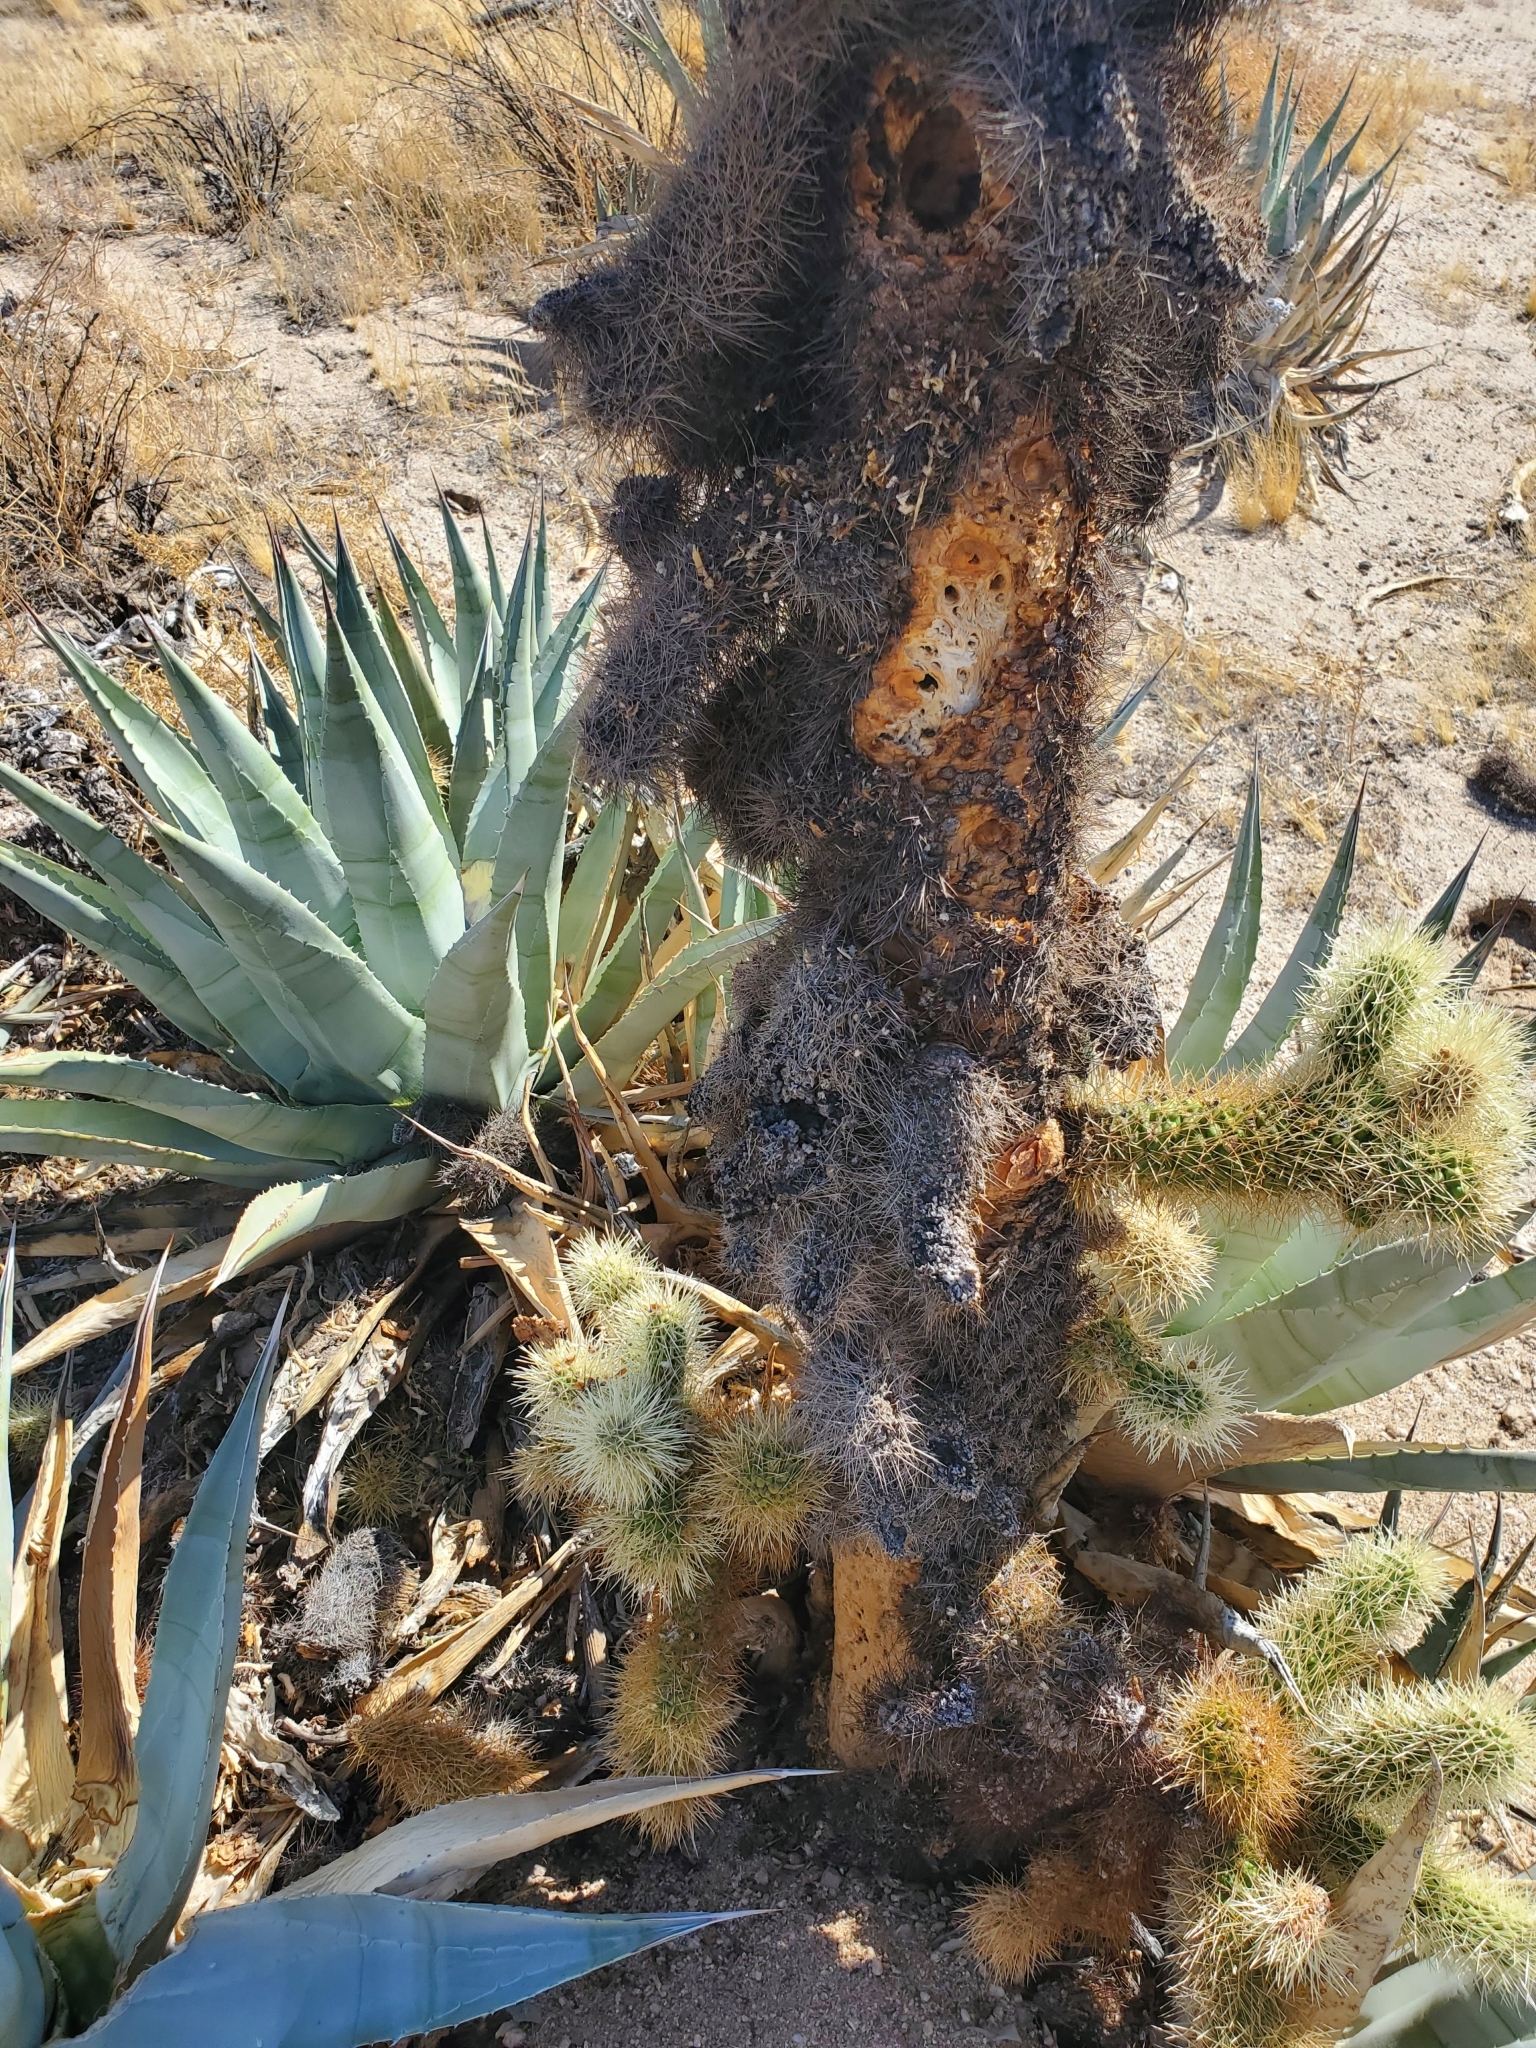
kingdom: Plantae
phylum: Tracheophyta
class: Magnoliopsida
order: Caryophyllales
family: Cactaceae
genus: Cylindropuntia
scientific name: Cylindropuntia fosbergii
